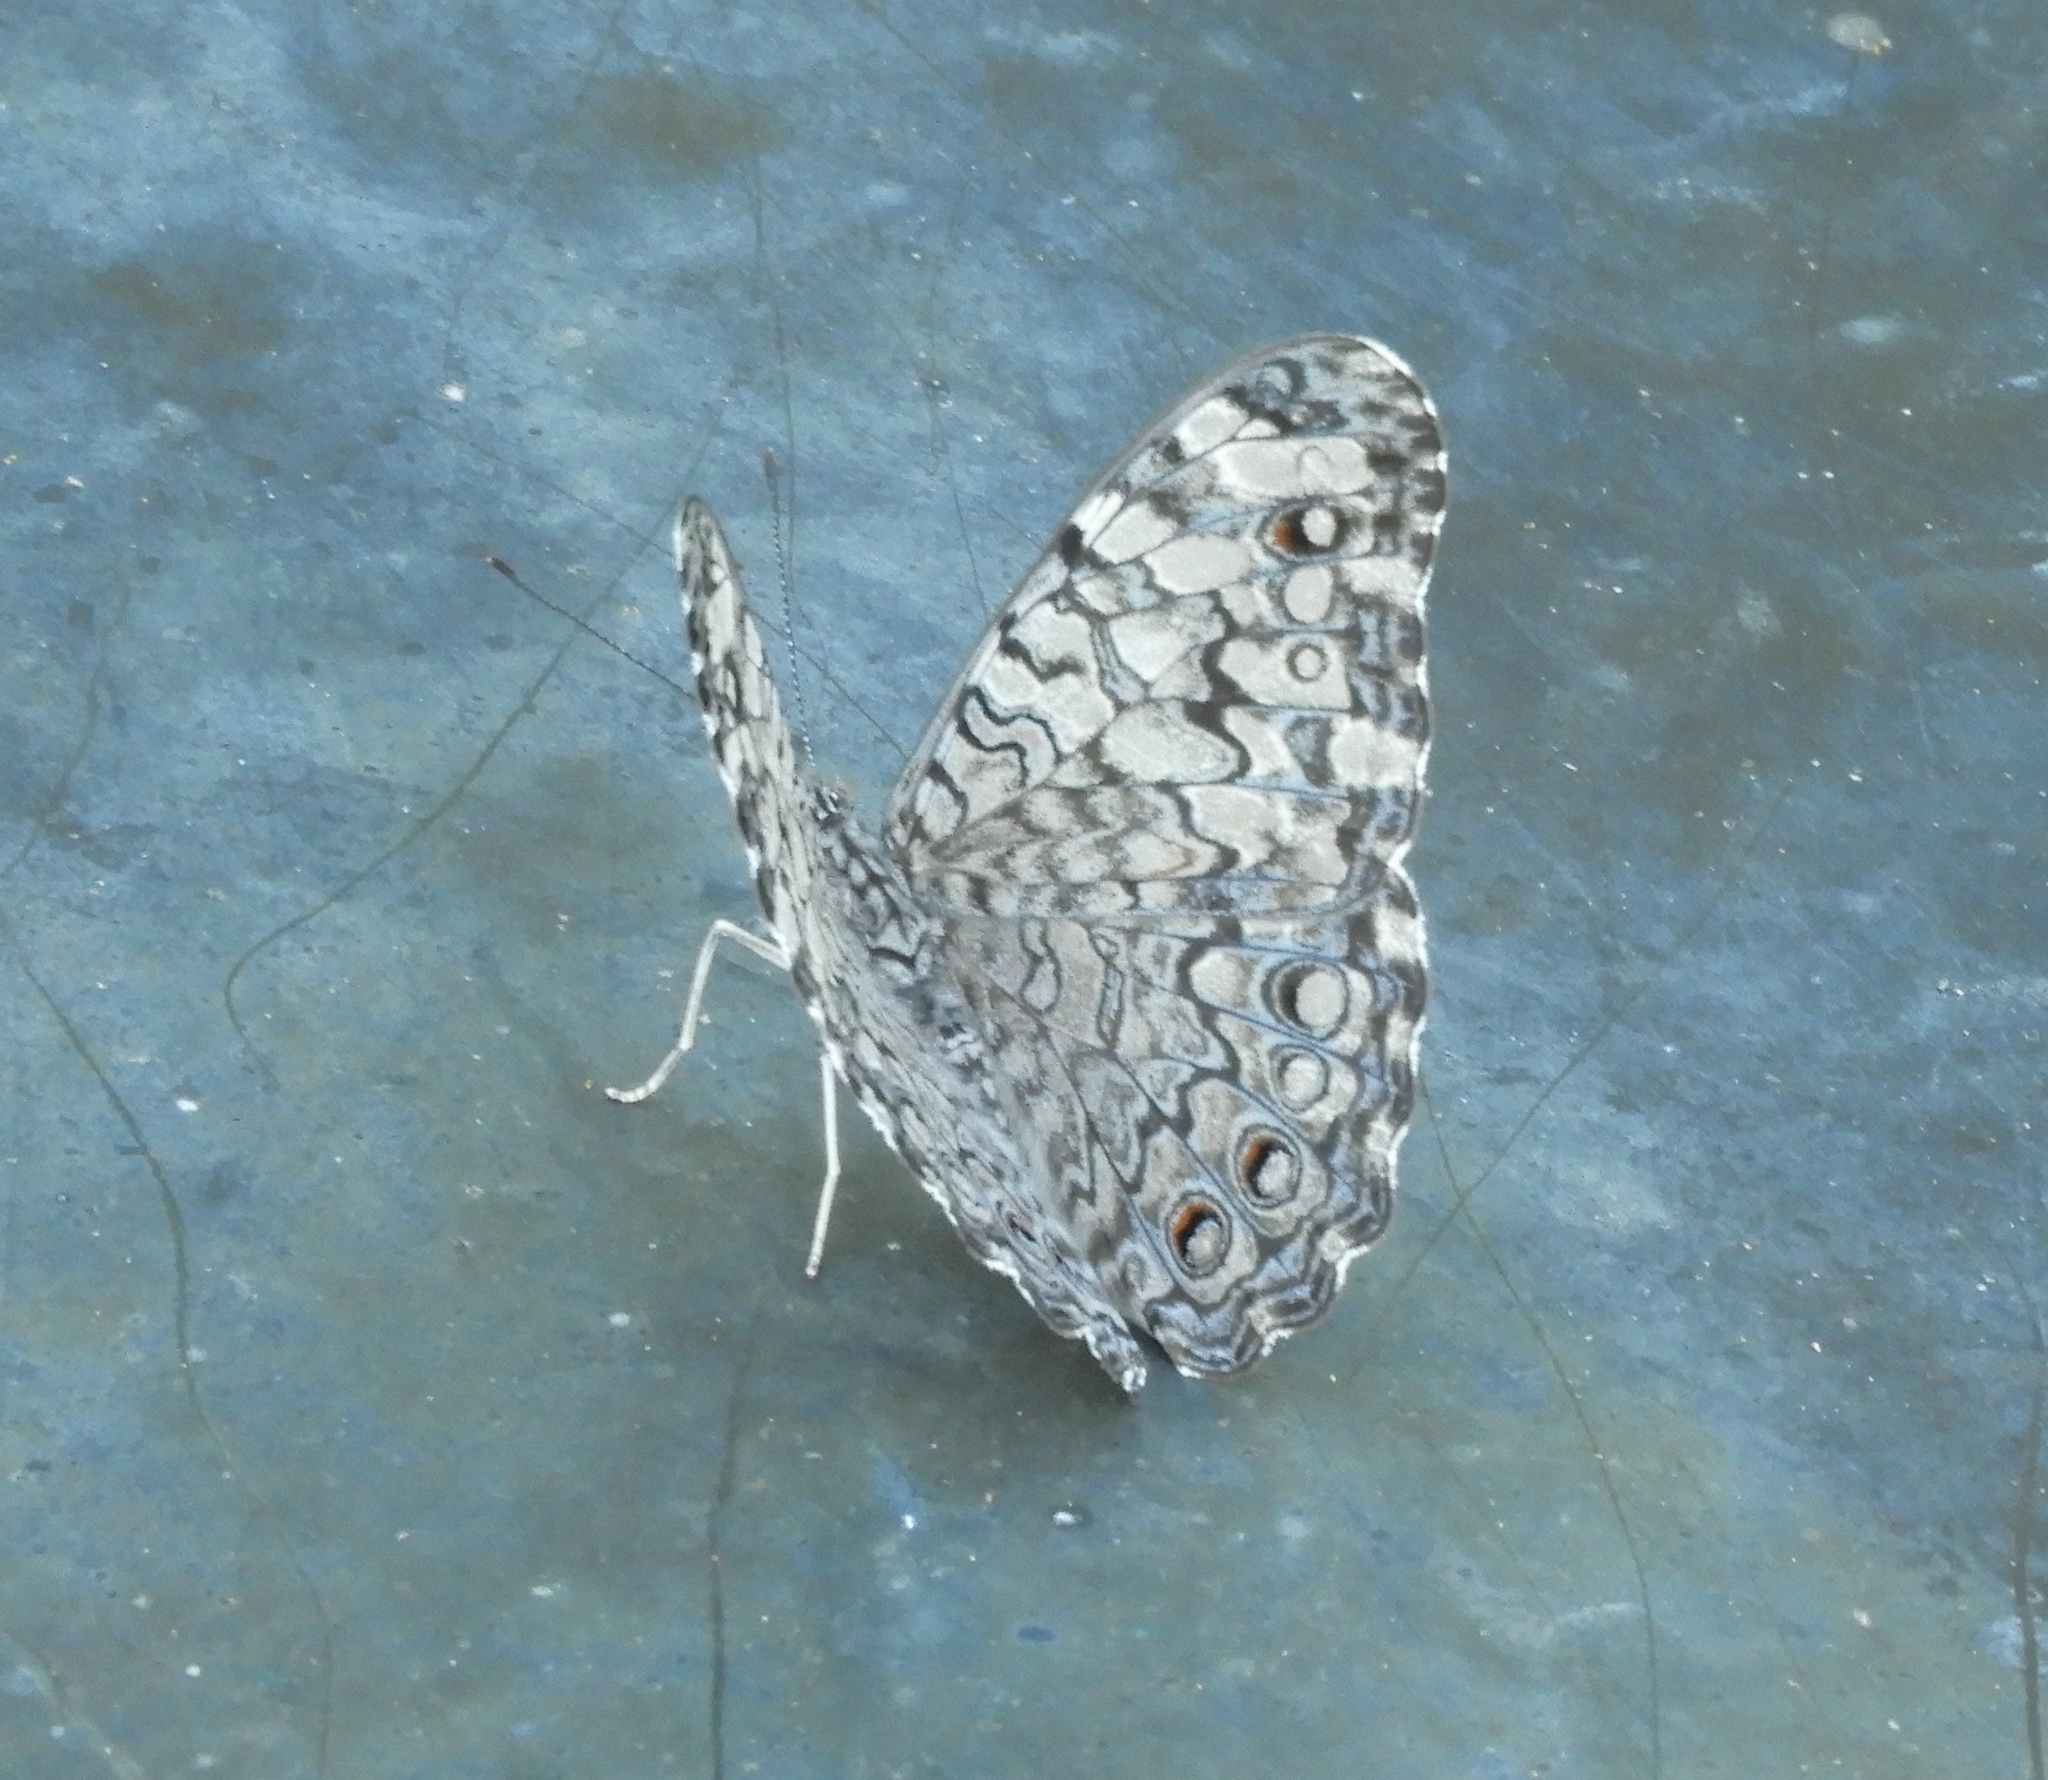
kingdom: Animalia
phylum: Arthropoda
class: Insecta
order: Lepidoptera
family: Nymphalidae
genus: Hamadryas
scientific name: Hamadryas februa
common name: Gray cracker
